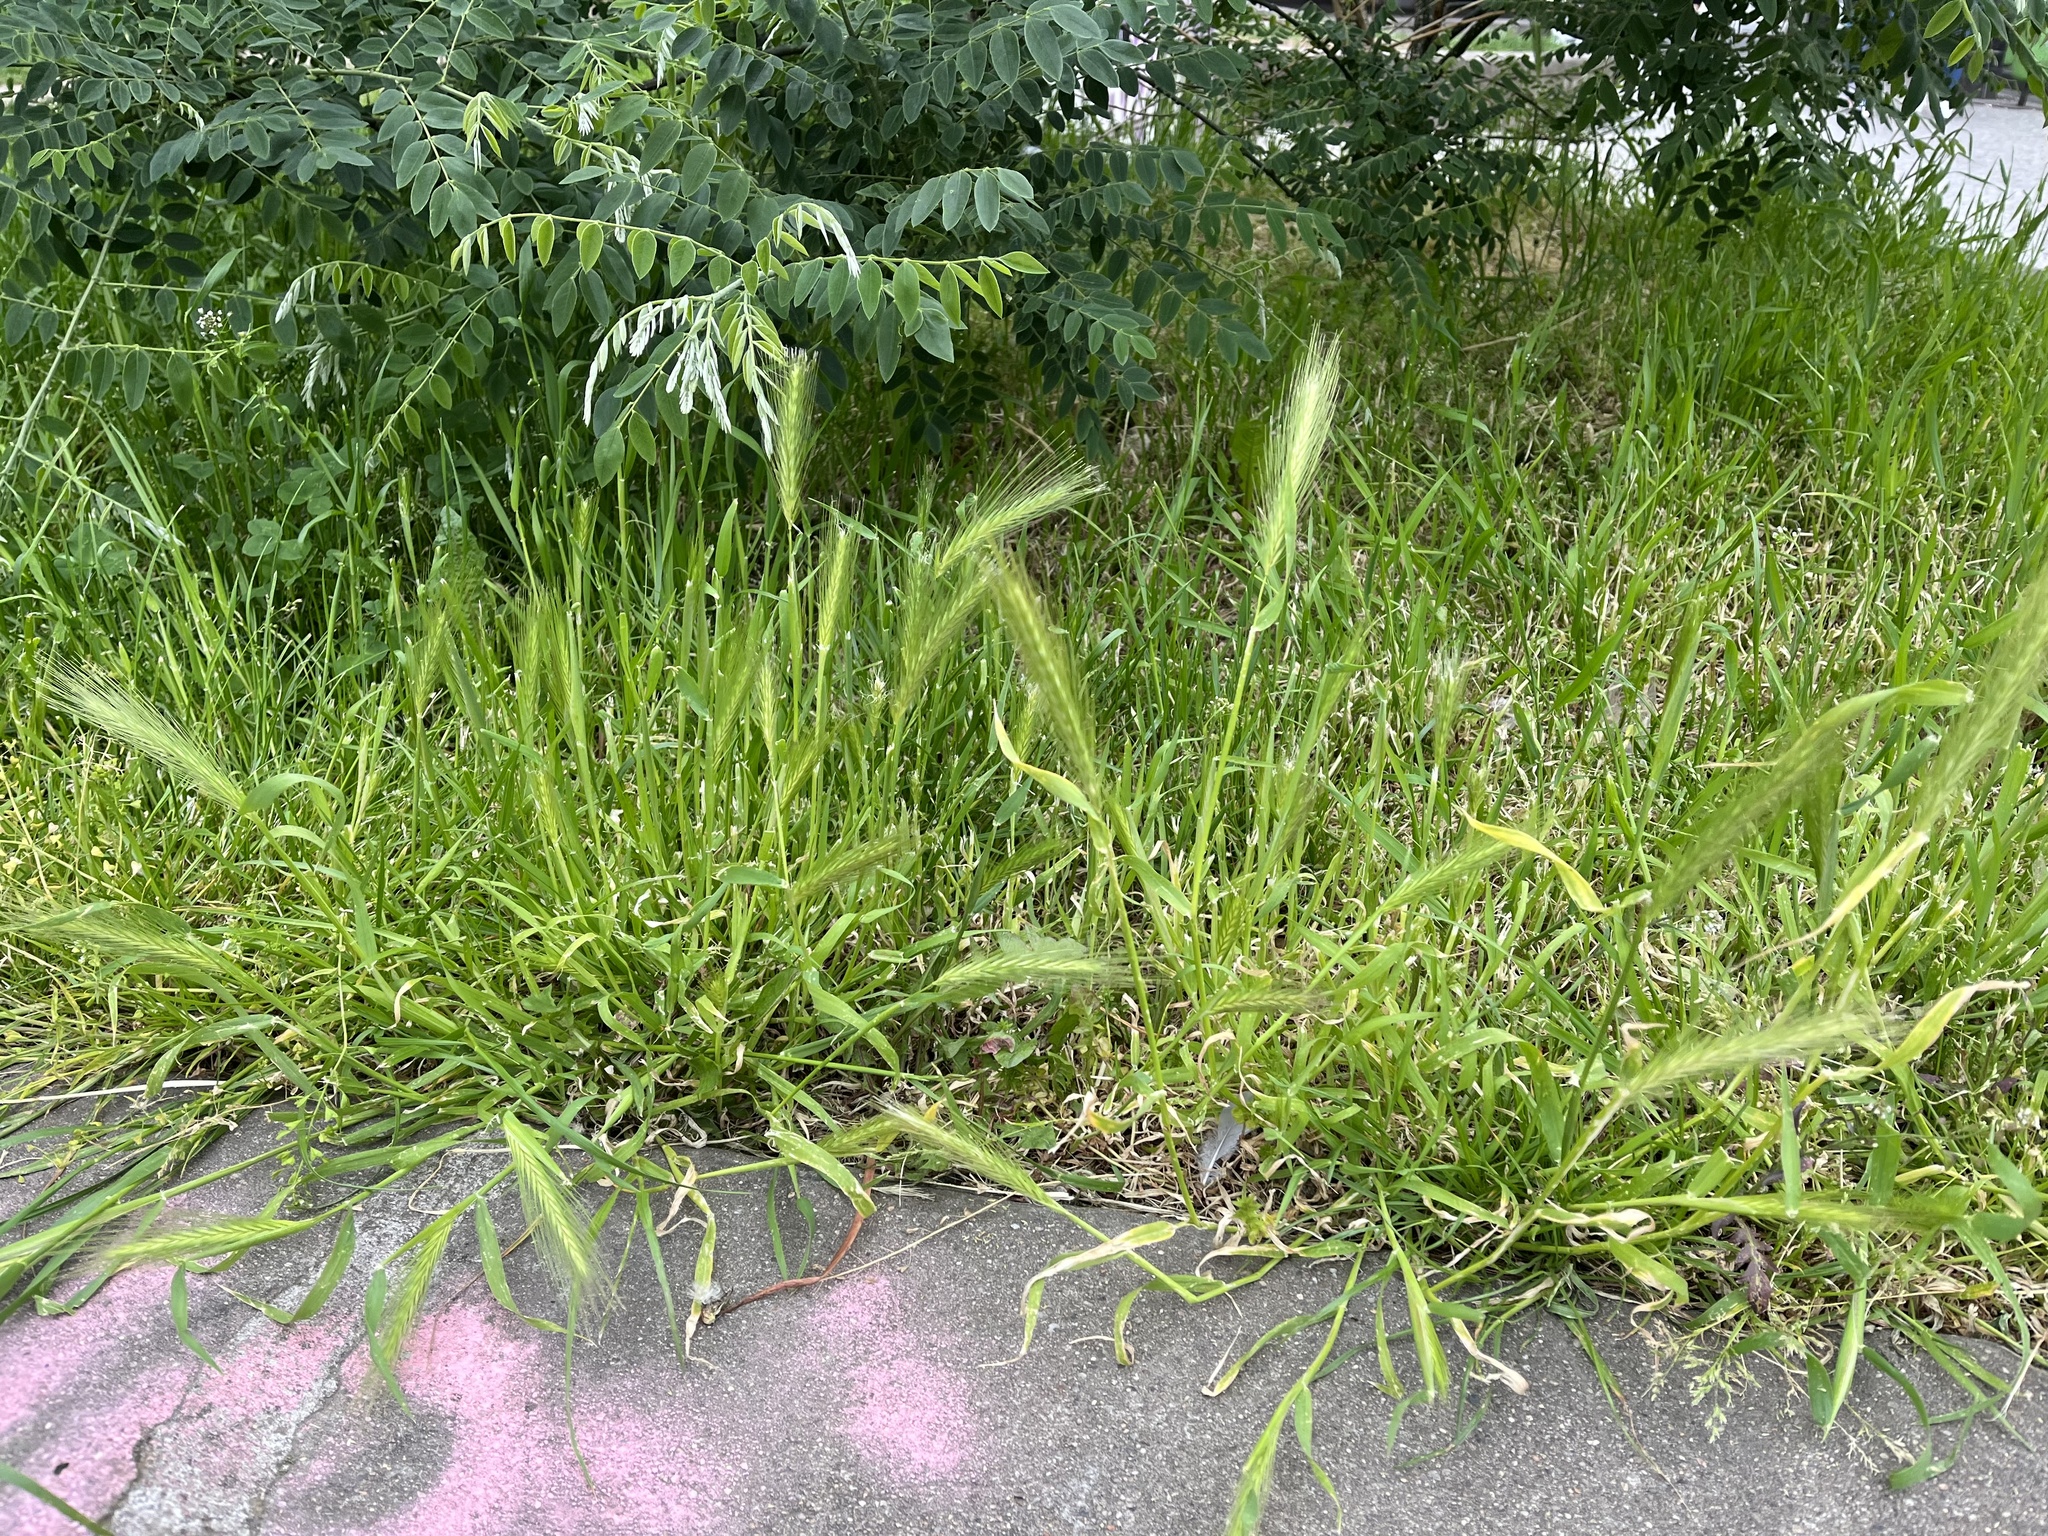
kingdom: Plantae
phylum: Tracheophyta
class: Liliopsida
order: Poales
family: Poaceae
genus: Hordeum
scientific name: Hordeum murinum
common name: Wall barley
